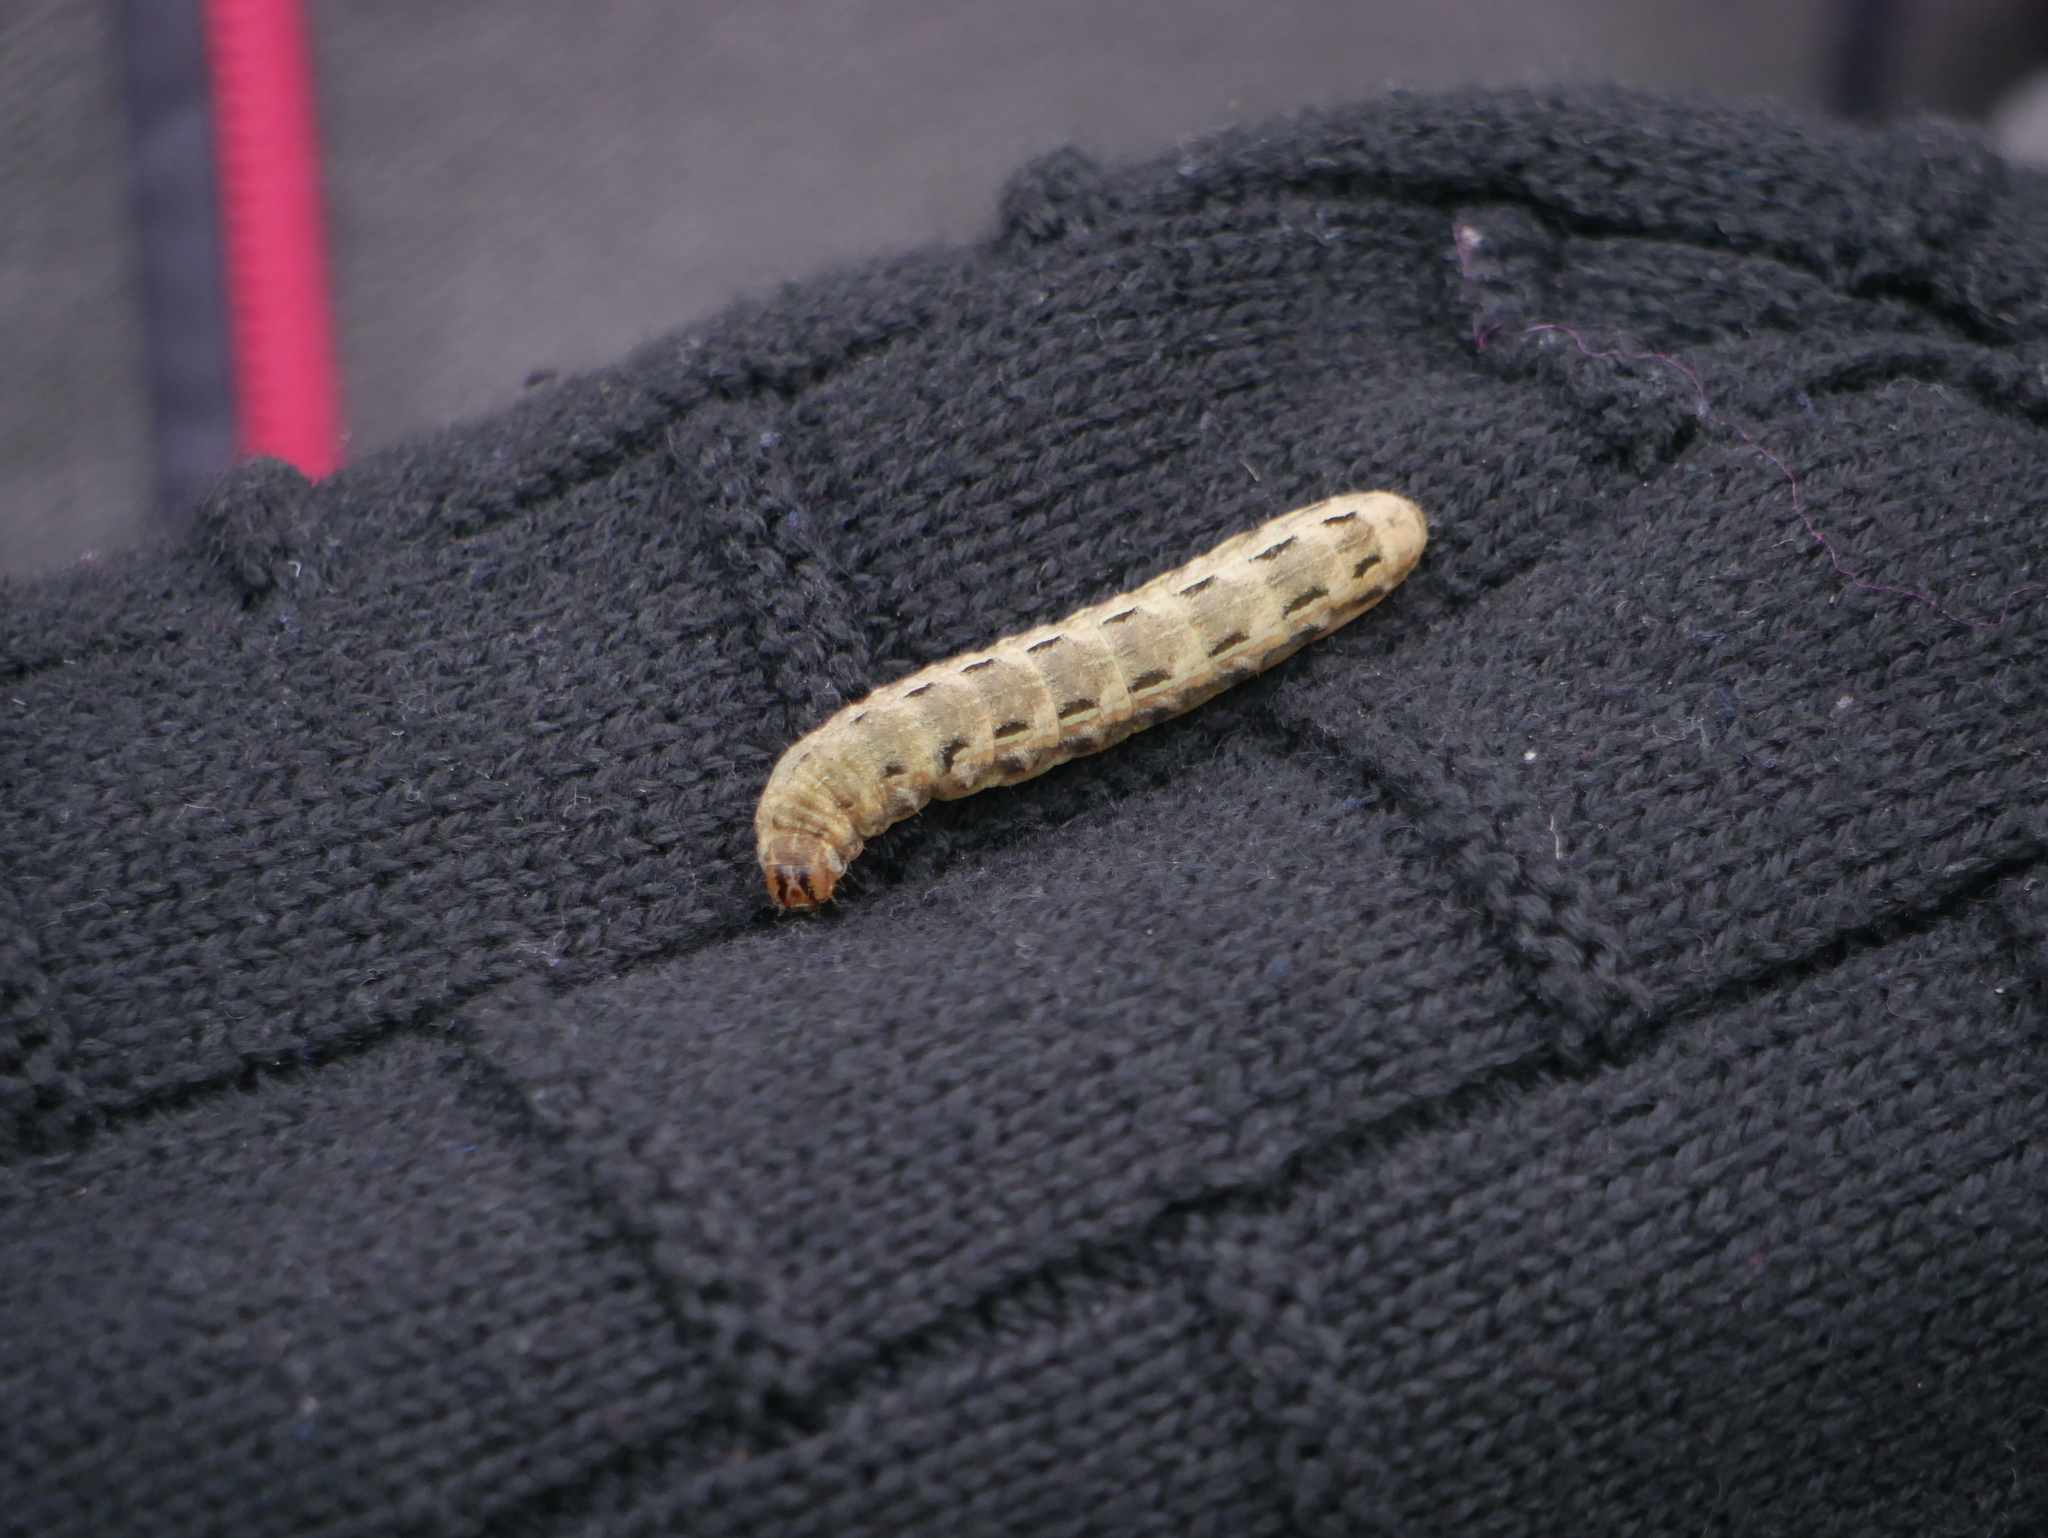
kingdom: Animalia
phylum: Arthropoda
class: Insecta
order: Lepidoptera
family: Noctuidae
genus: Noctua
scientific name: Noctua pronuba
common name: Large yellow underwing
